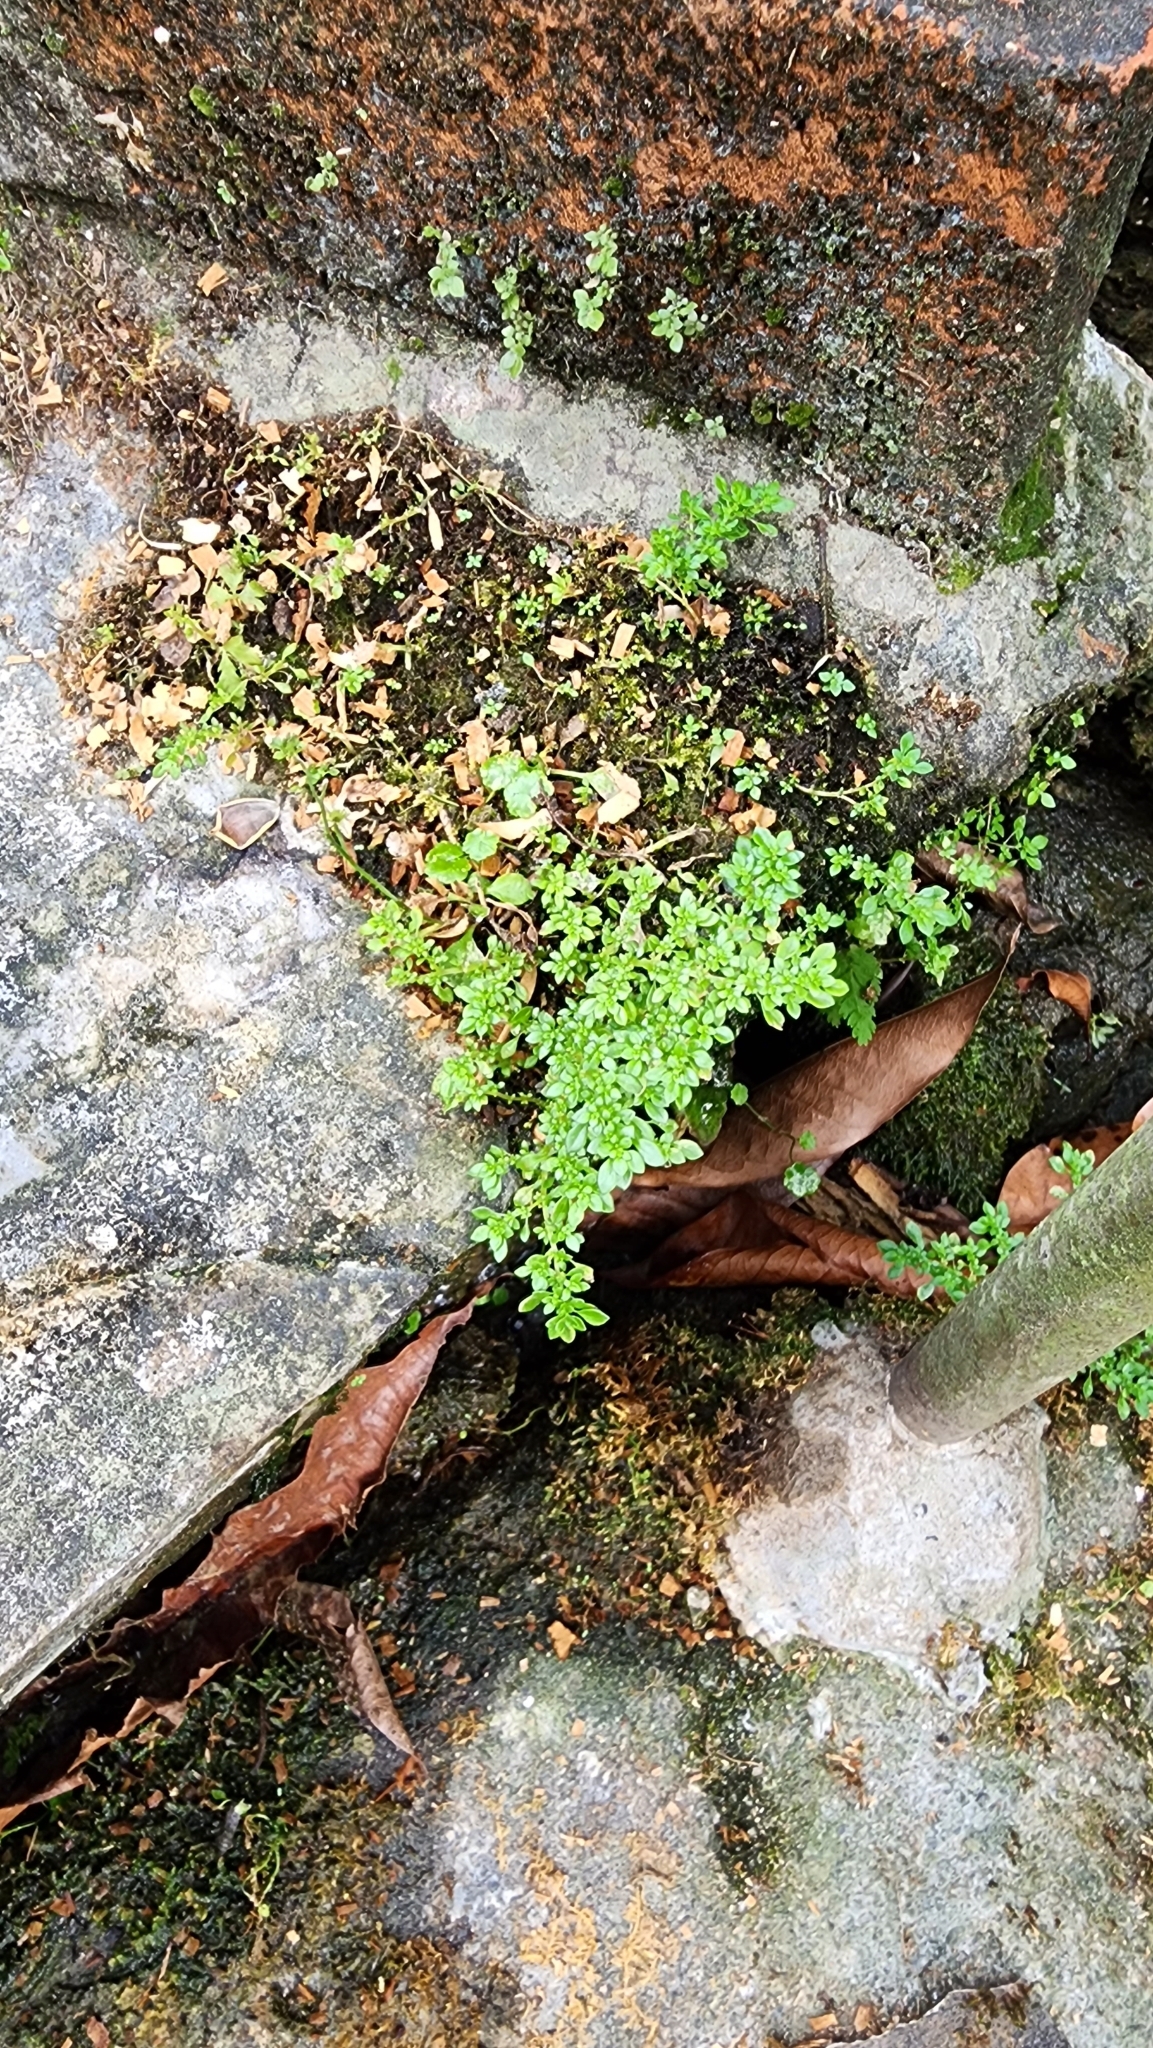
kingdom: Plantae
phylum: Tracheophyta
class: Magnoliopsida
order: Rosales
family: Urticaceae
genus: Pilea
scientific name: Pilea microphylla
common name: Artillery-plant
